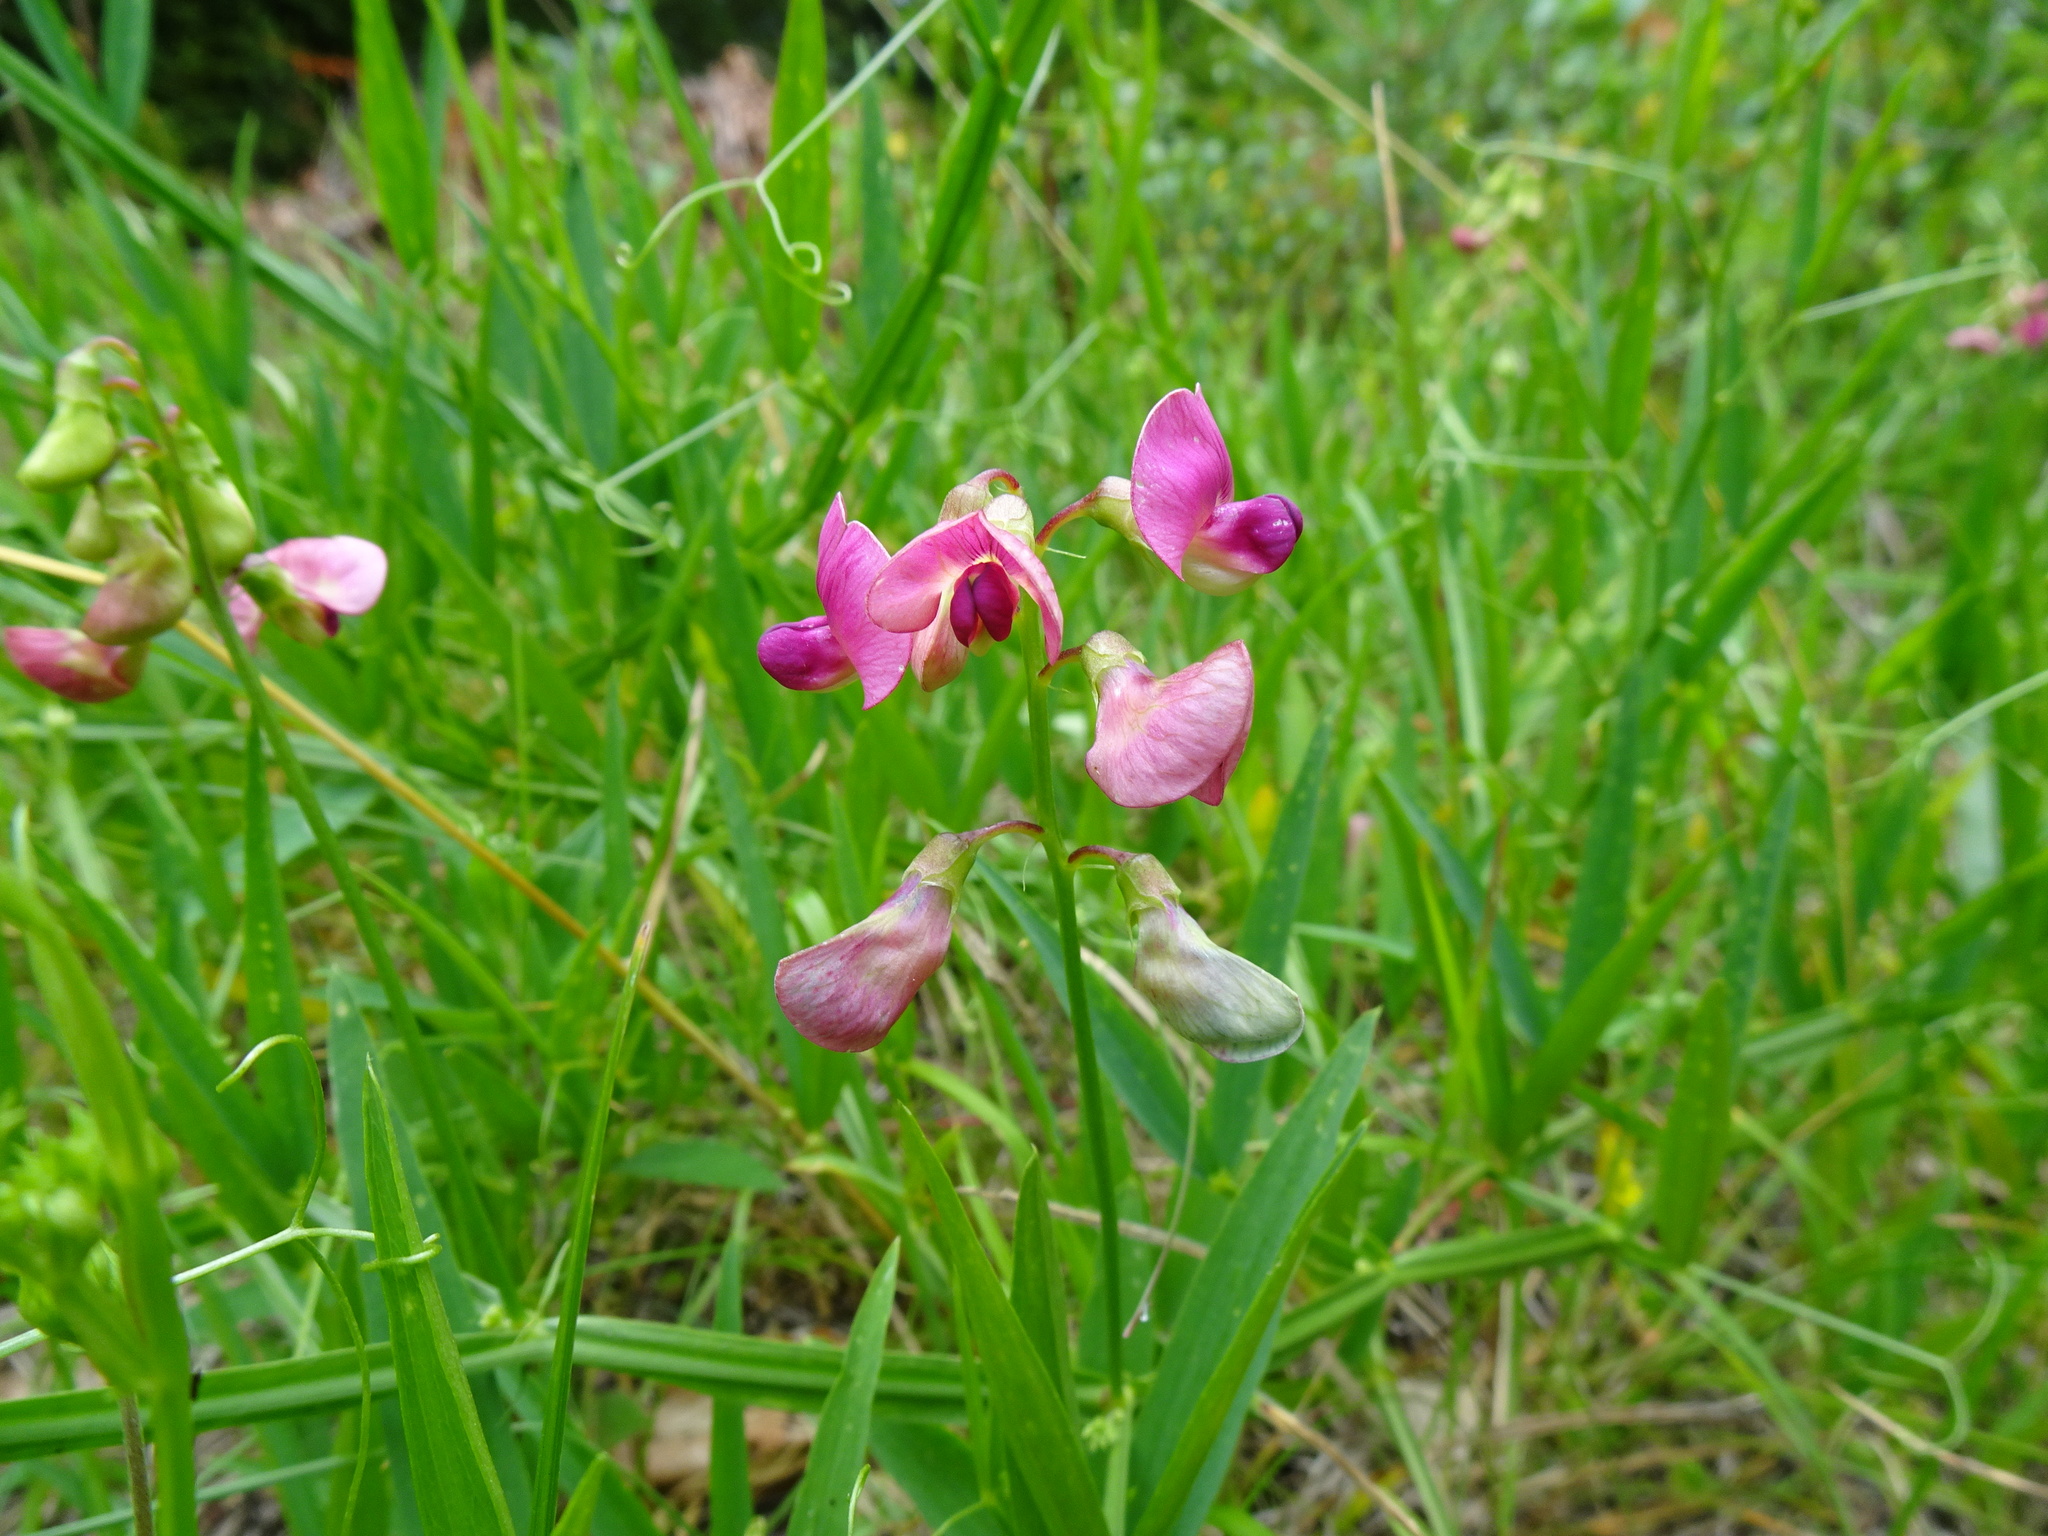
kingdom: Plantae
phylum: Tracheophyta
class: Magnoliopsida
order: Fabales
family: Fabaceae
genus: Lathyrus
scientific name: Lathyrus sylvestris
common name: Flat pea
